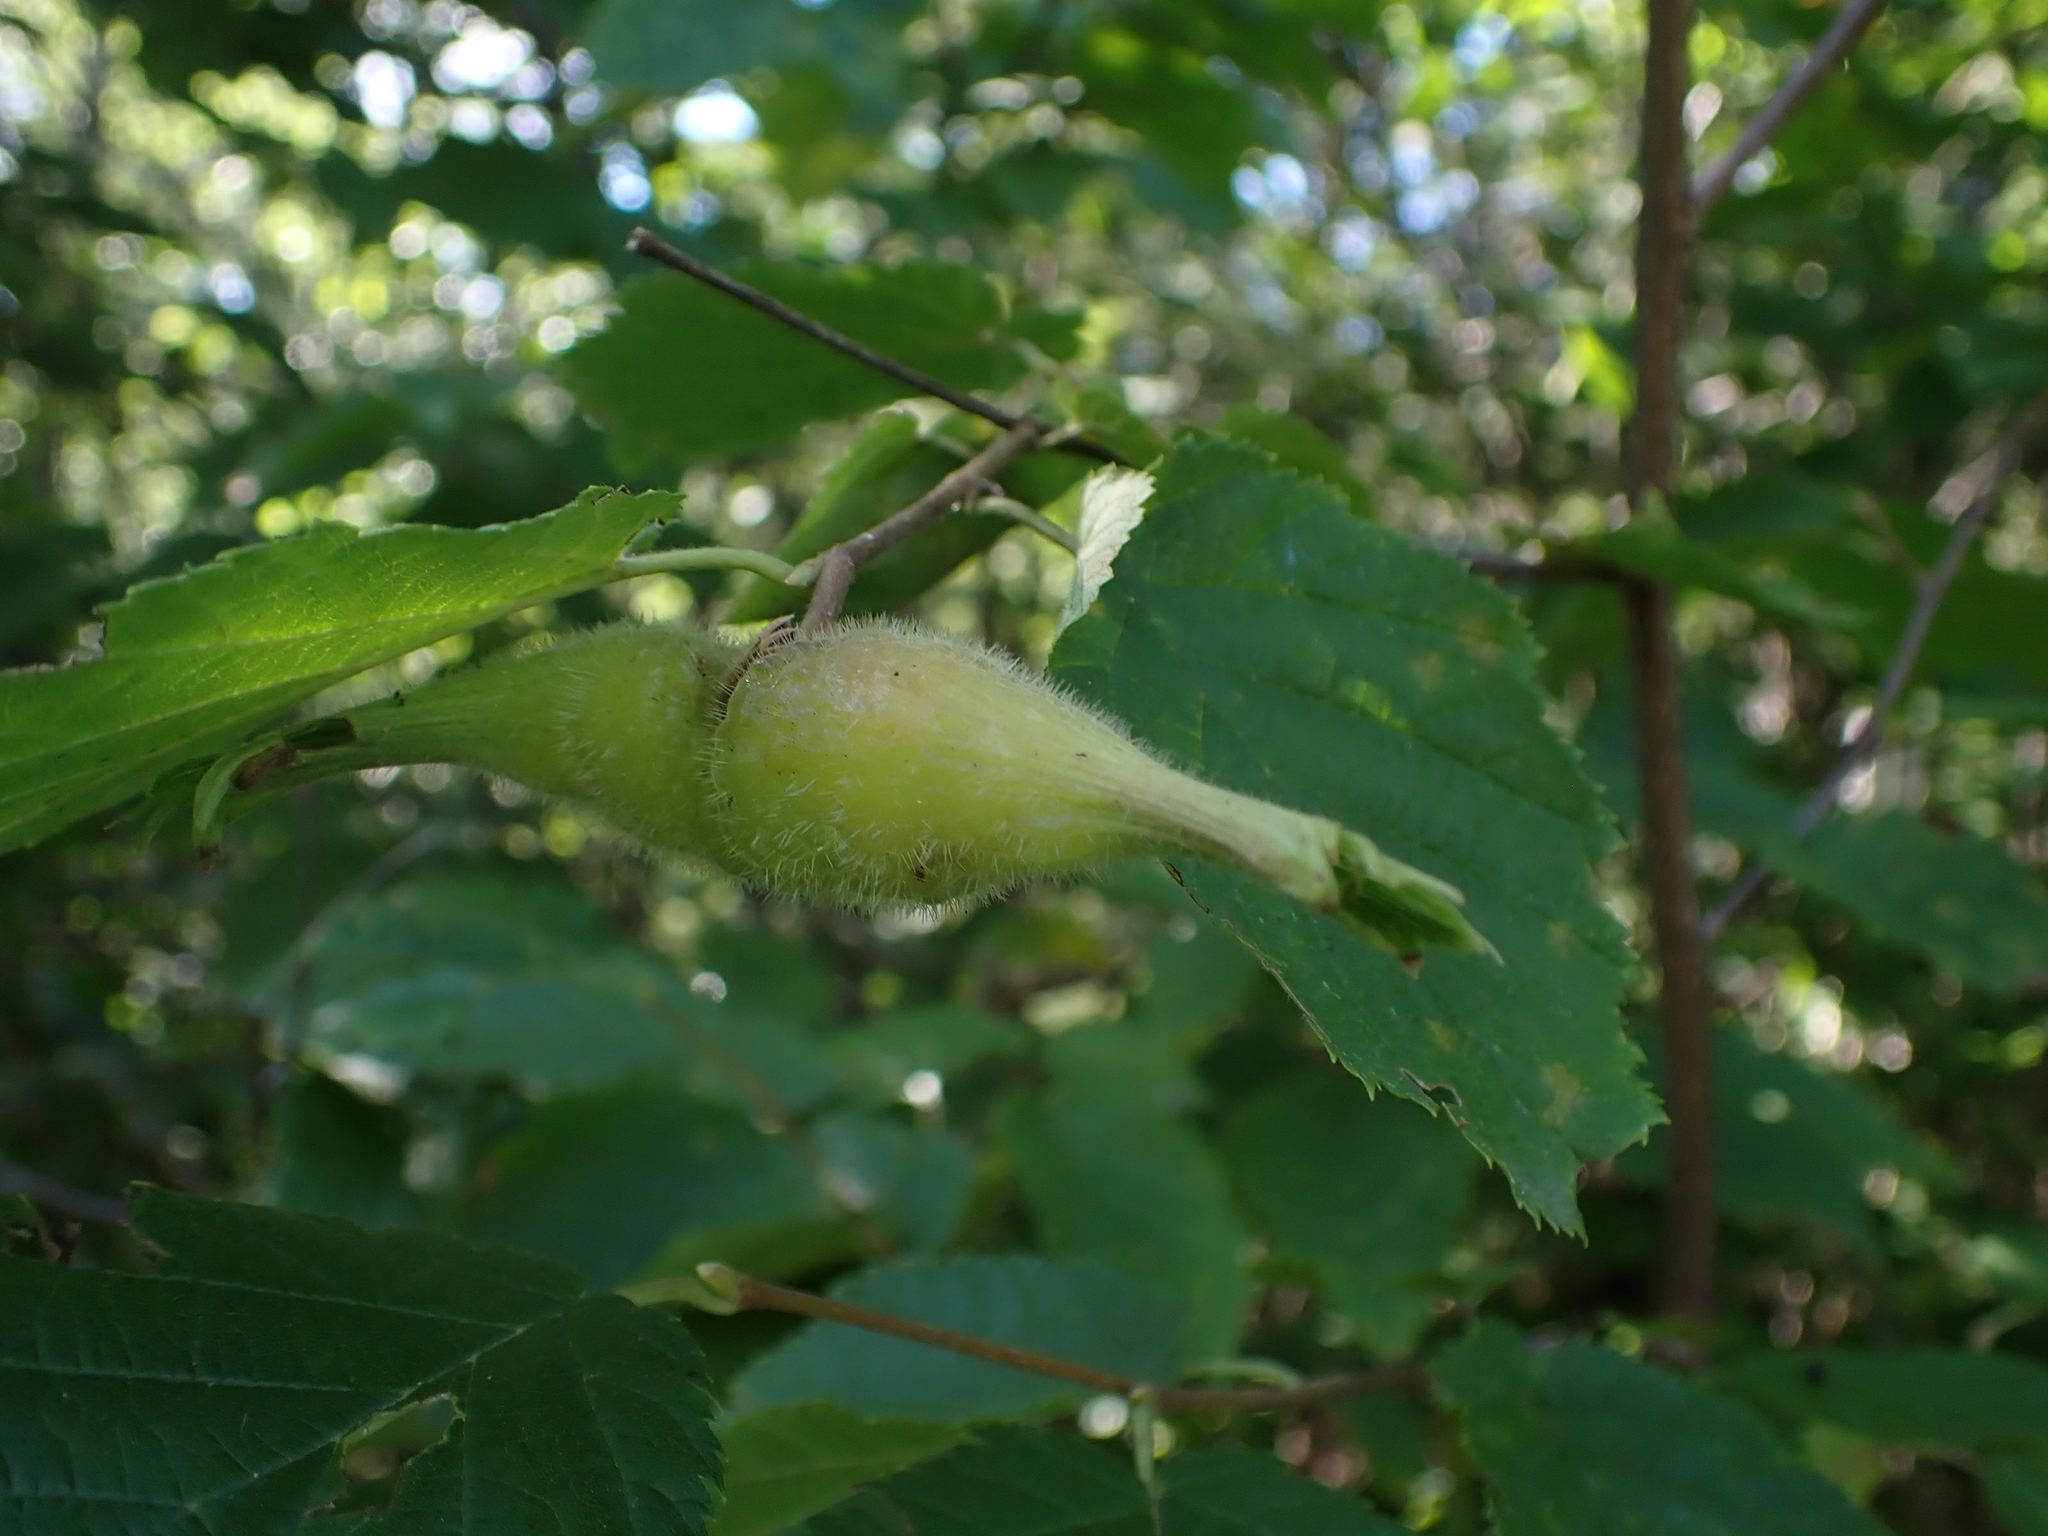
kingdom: Plantae
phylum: Tracheophyta
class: Magnoliopsida
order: Fagales
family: Betulaceae
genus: Corylus
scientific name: Corylus cornuta
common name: Beaked hazel
